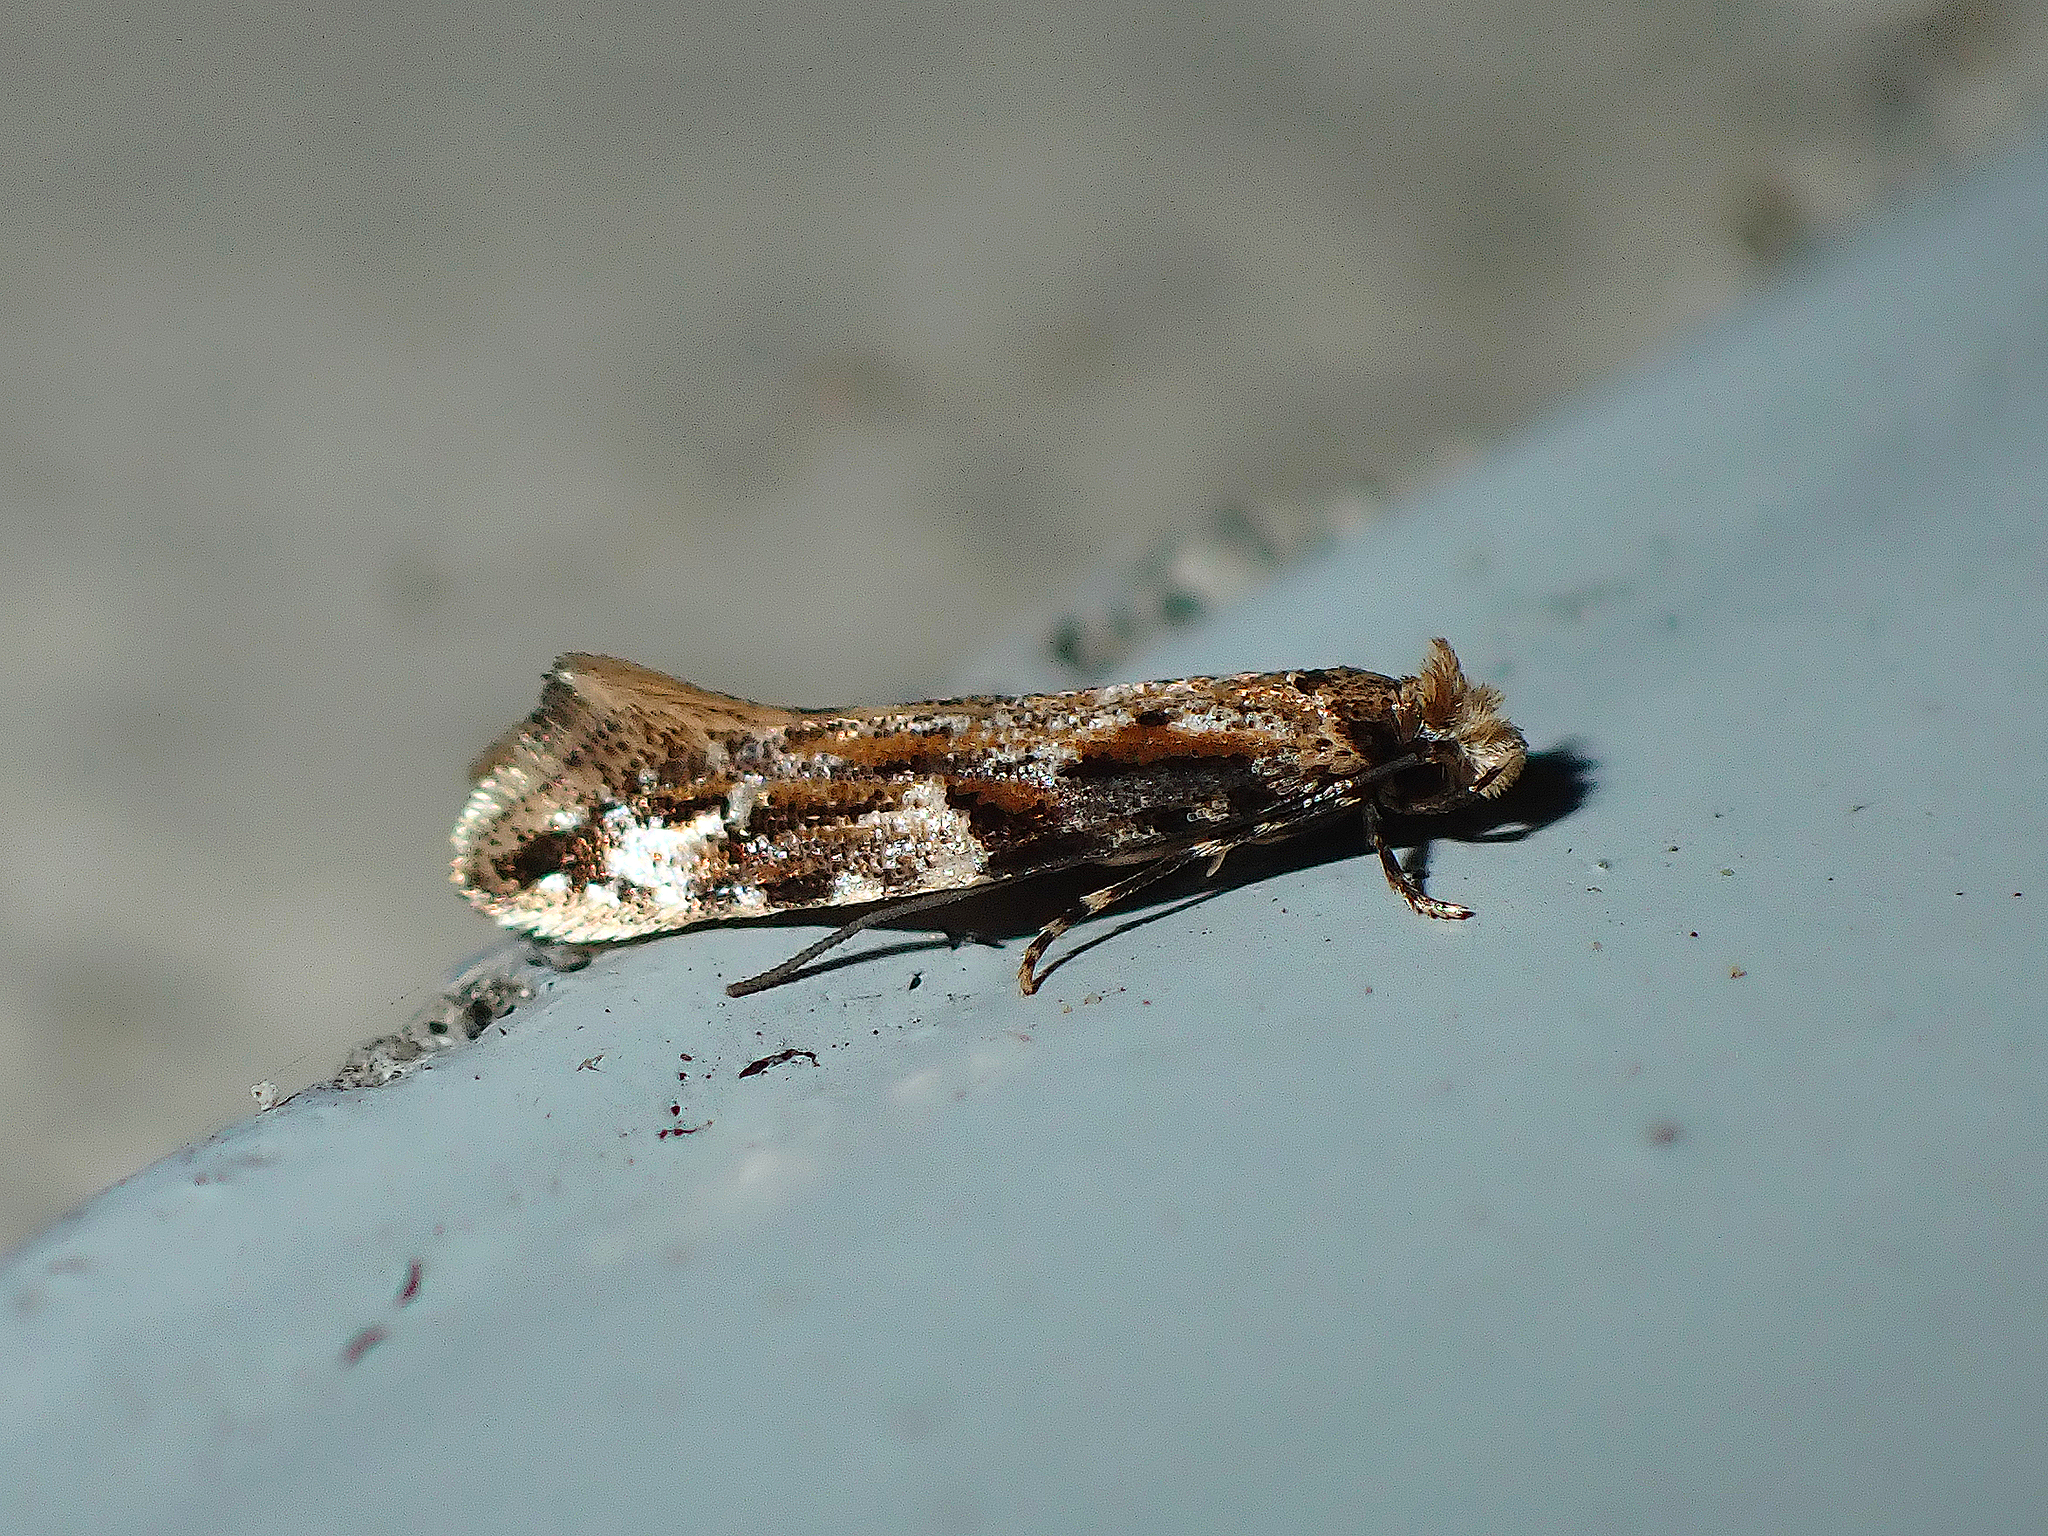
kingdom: Animalia
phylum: Arthropoda
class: Insecta
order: Lepidoptera
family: Tineidae
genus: Crypsitricha
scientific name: Crypsitricha agriopa
